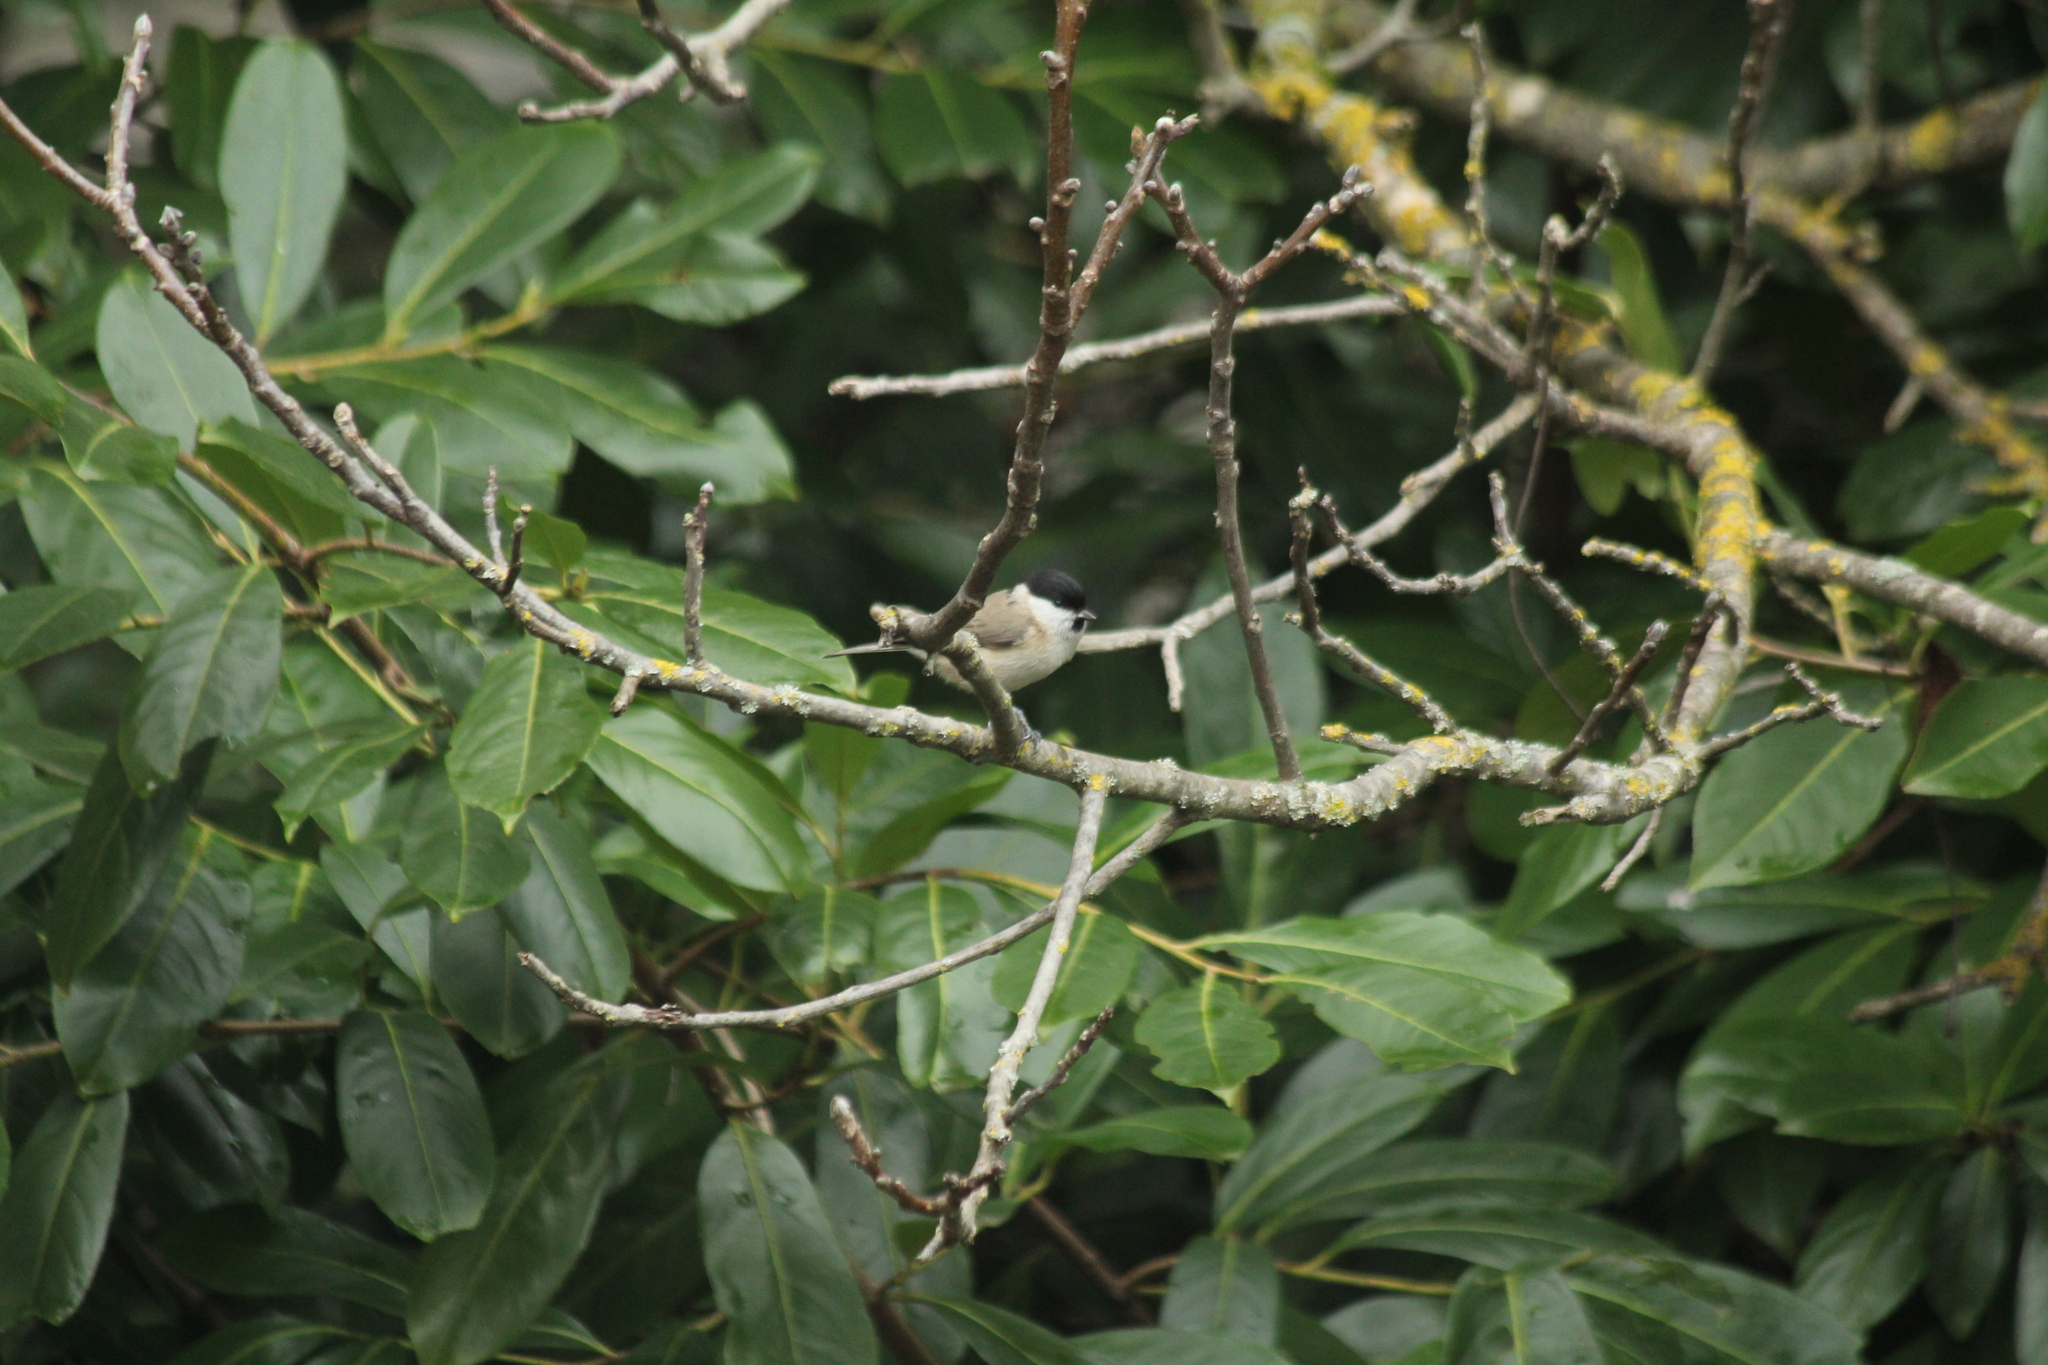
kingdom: Animalia
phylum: Chordata
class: Aves
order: Passeriformes
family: Paridae
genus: Poecile
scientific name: Poecile palustris
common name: Marsh tit
